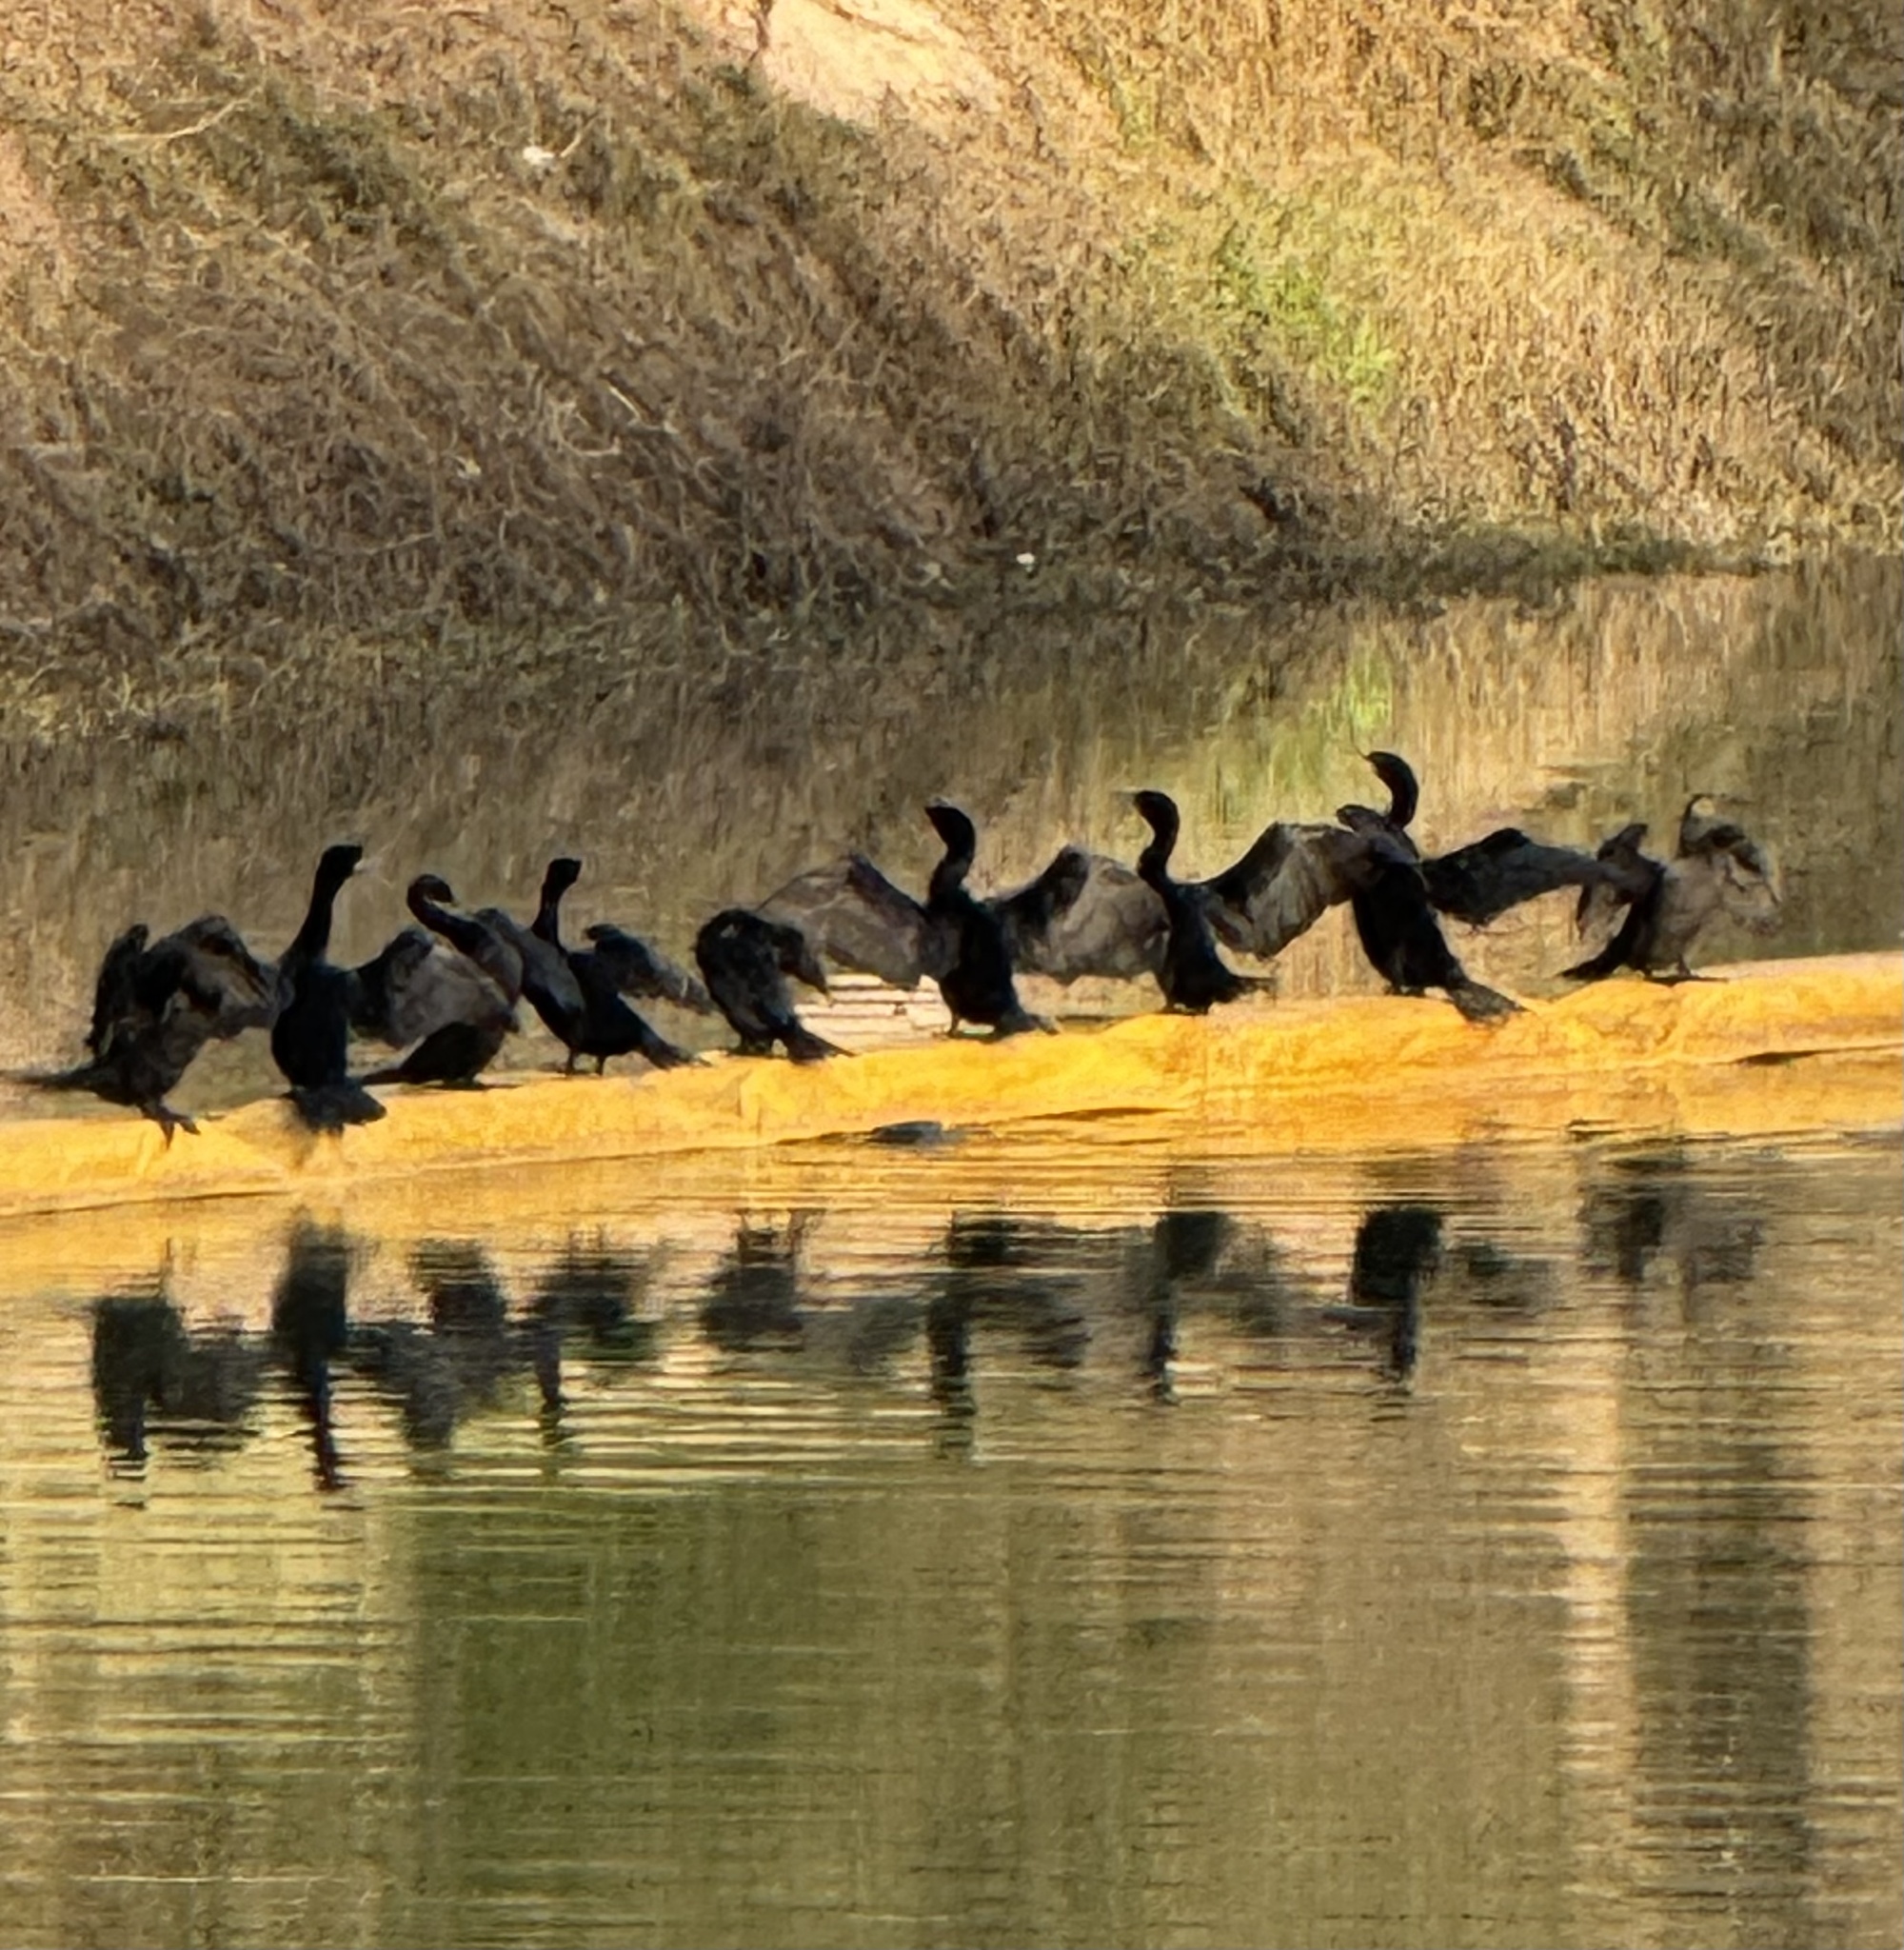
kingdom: Animalia
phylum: Chordata
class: Aves
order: Suliformes
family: Phalacrocoracidae
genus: Phalacrocorax
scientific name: Phalacrocorax brasilianus
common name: Neotropic cormorant
